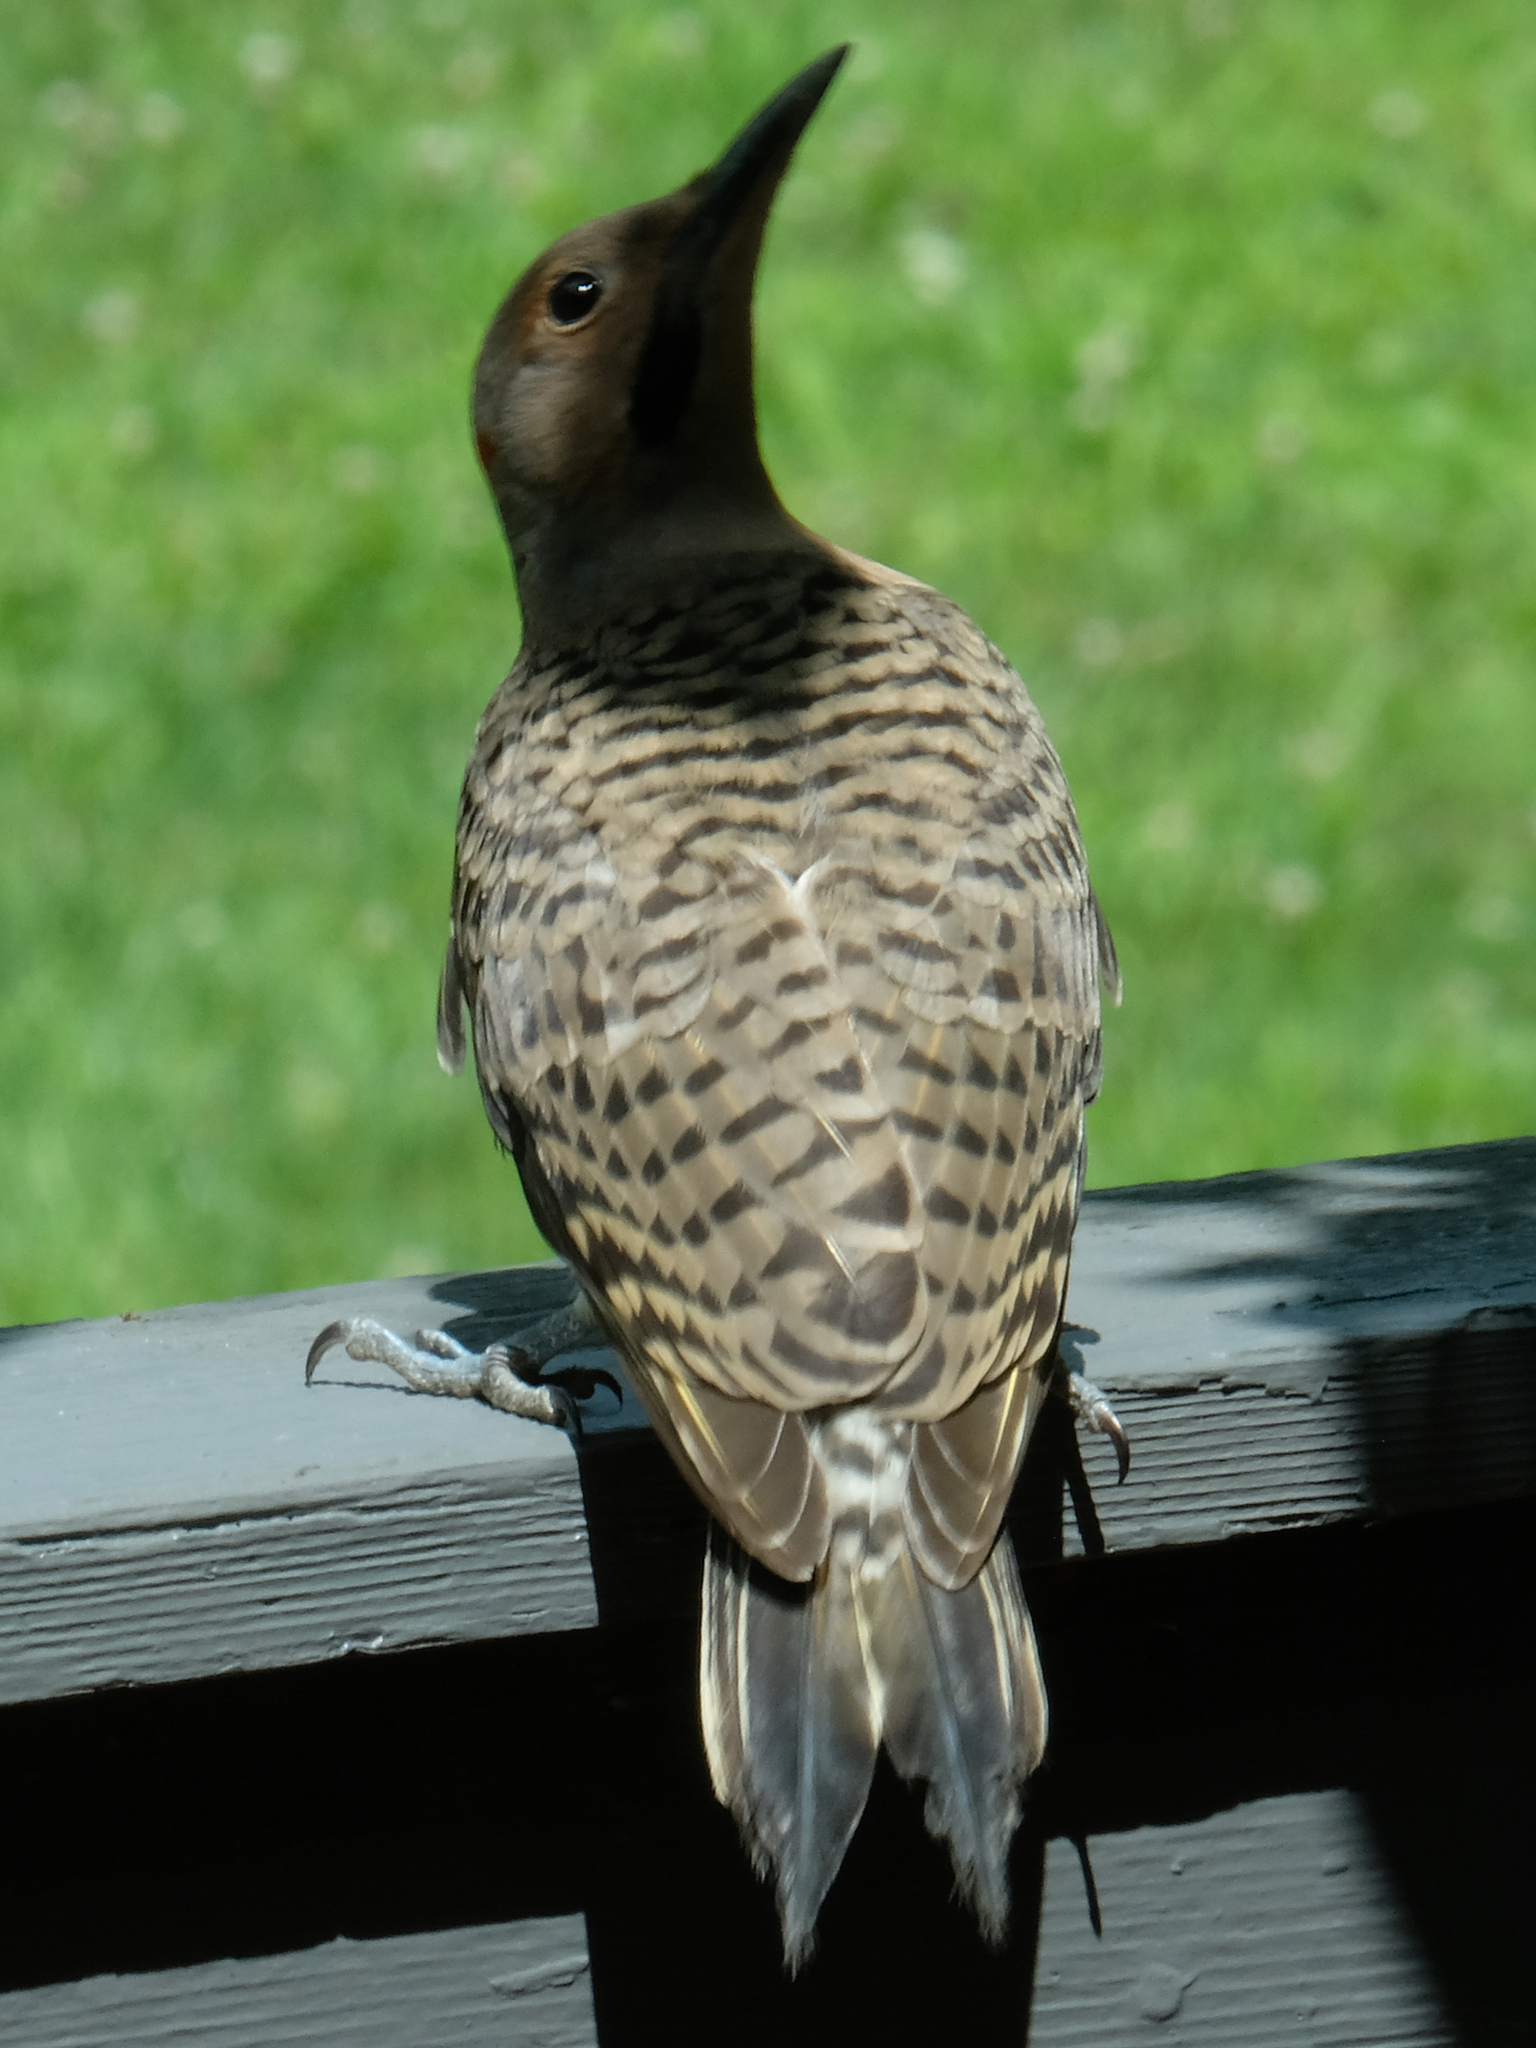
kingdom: Animalia
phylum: Chordata
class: Aves
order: Piciformes
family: Picidae
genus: Colaptes
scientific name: Colaptes auratus
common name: Northern flicker
